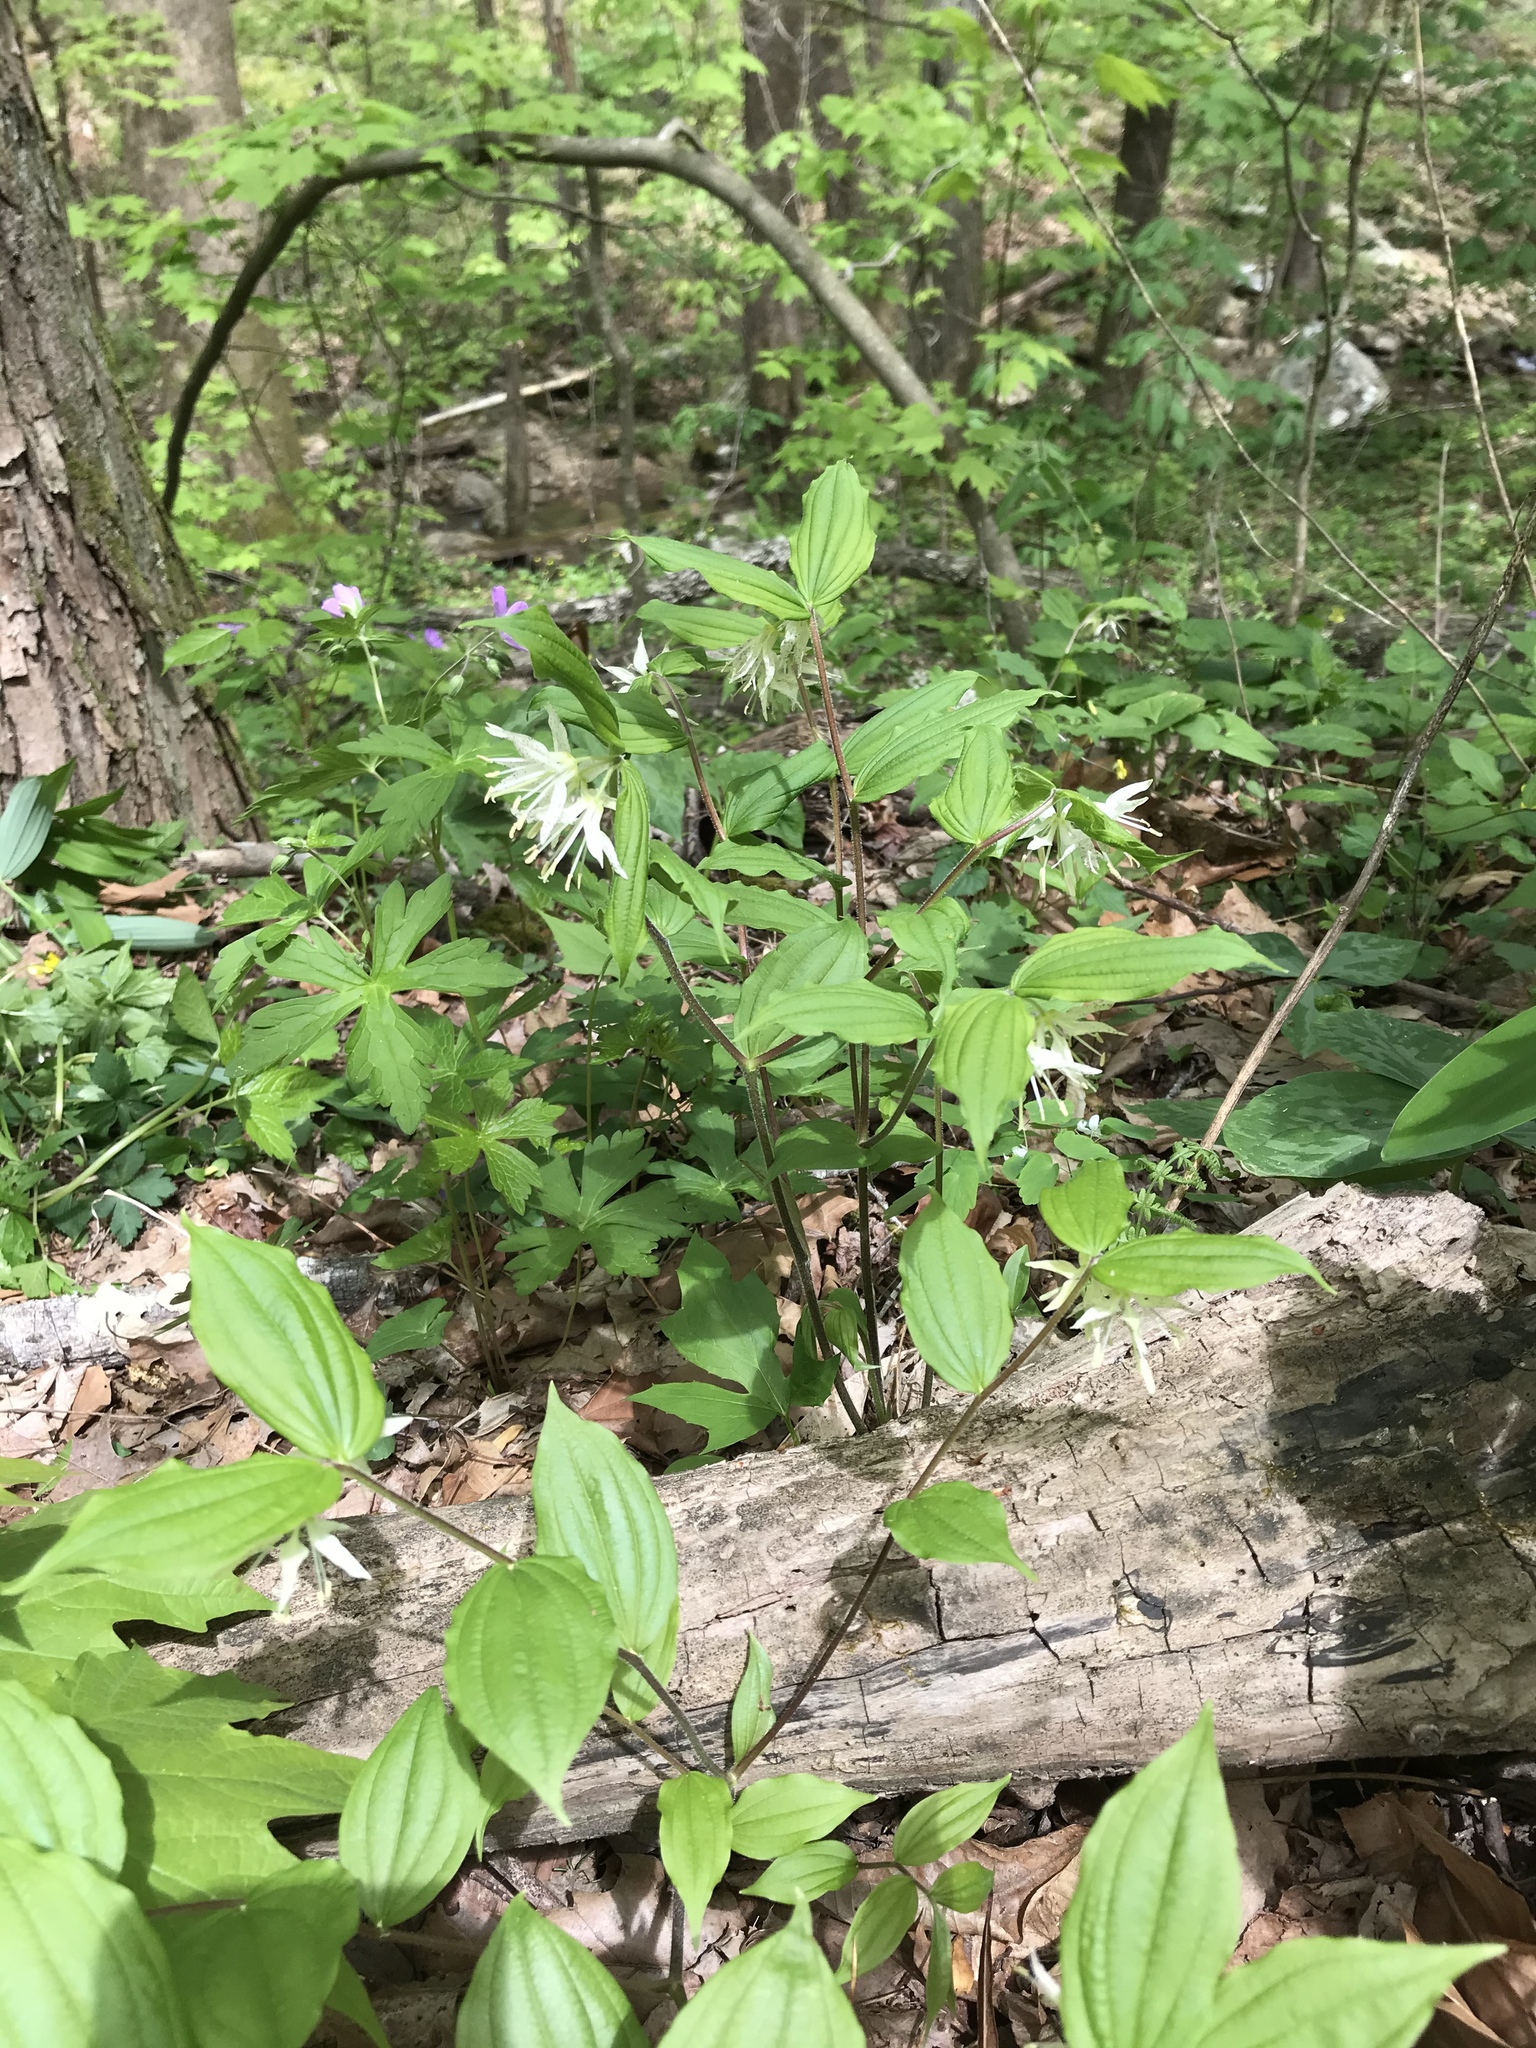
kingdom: Plantae
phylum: Tracheophyta
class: Liliopsida
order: Liliales
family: Liliaceae
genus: Prosartes
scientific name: Prosartes maculata
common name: Yellow mandarin
